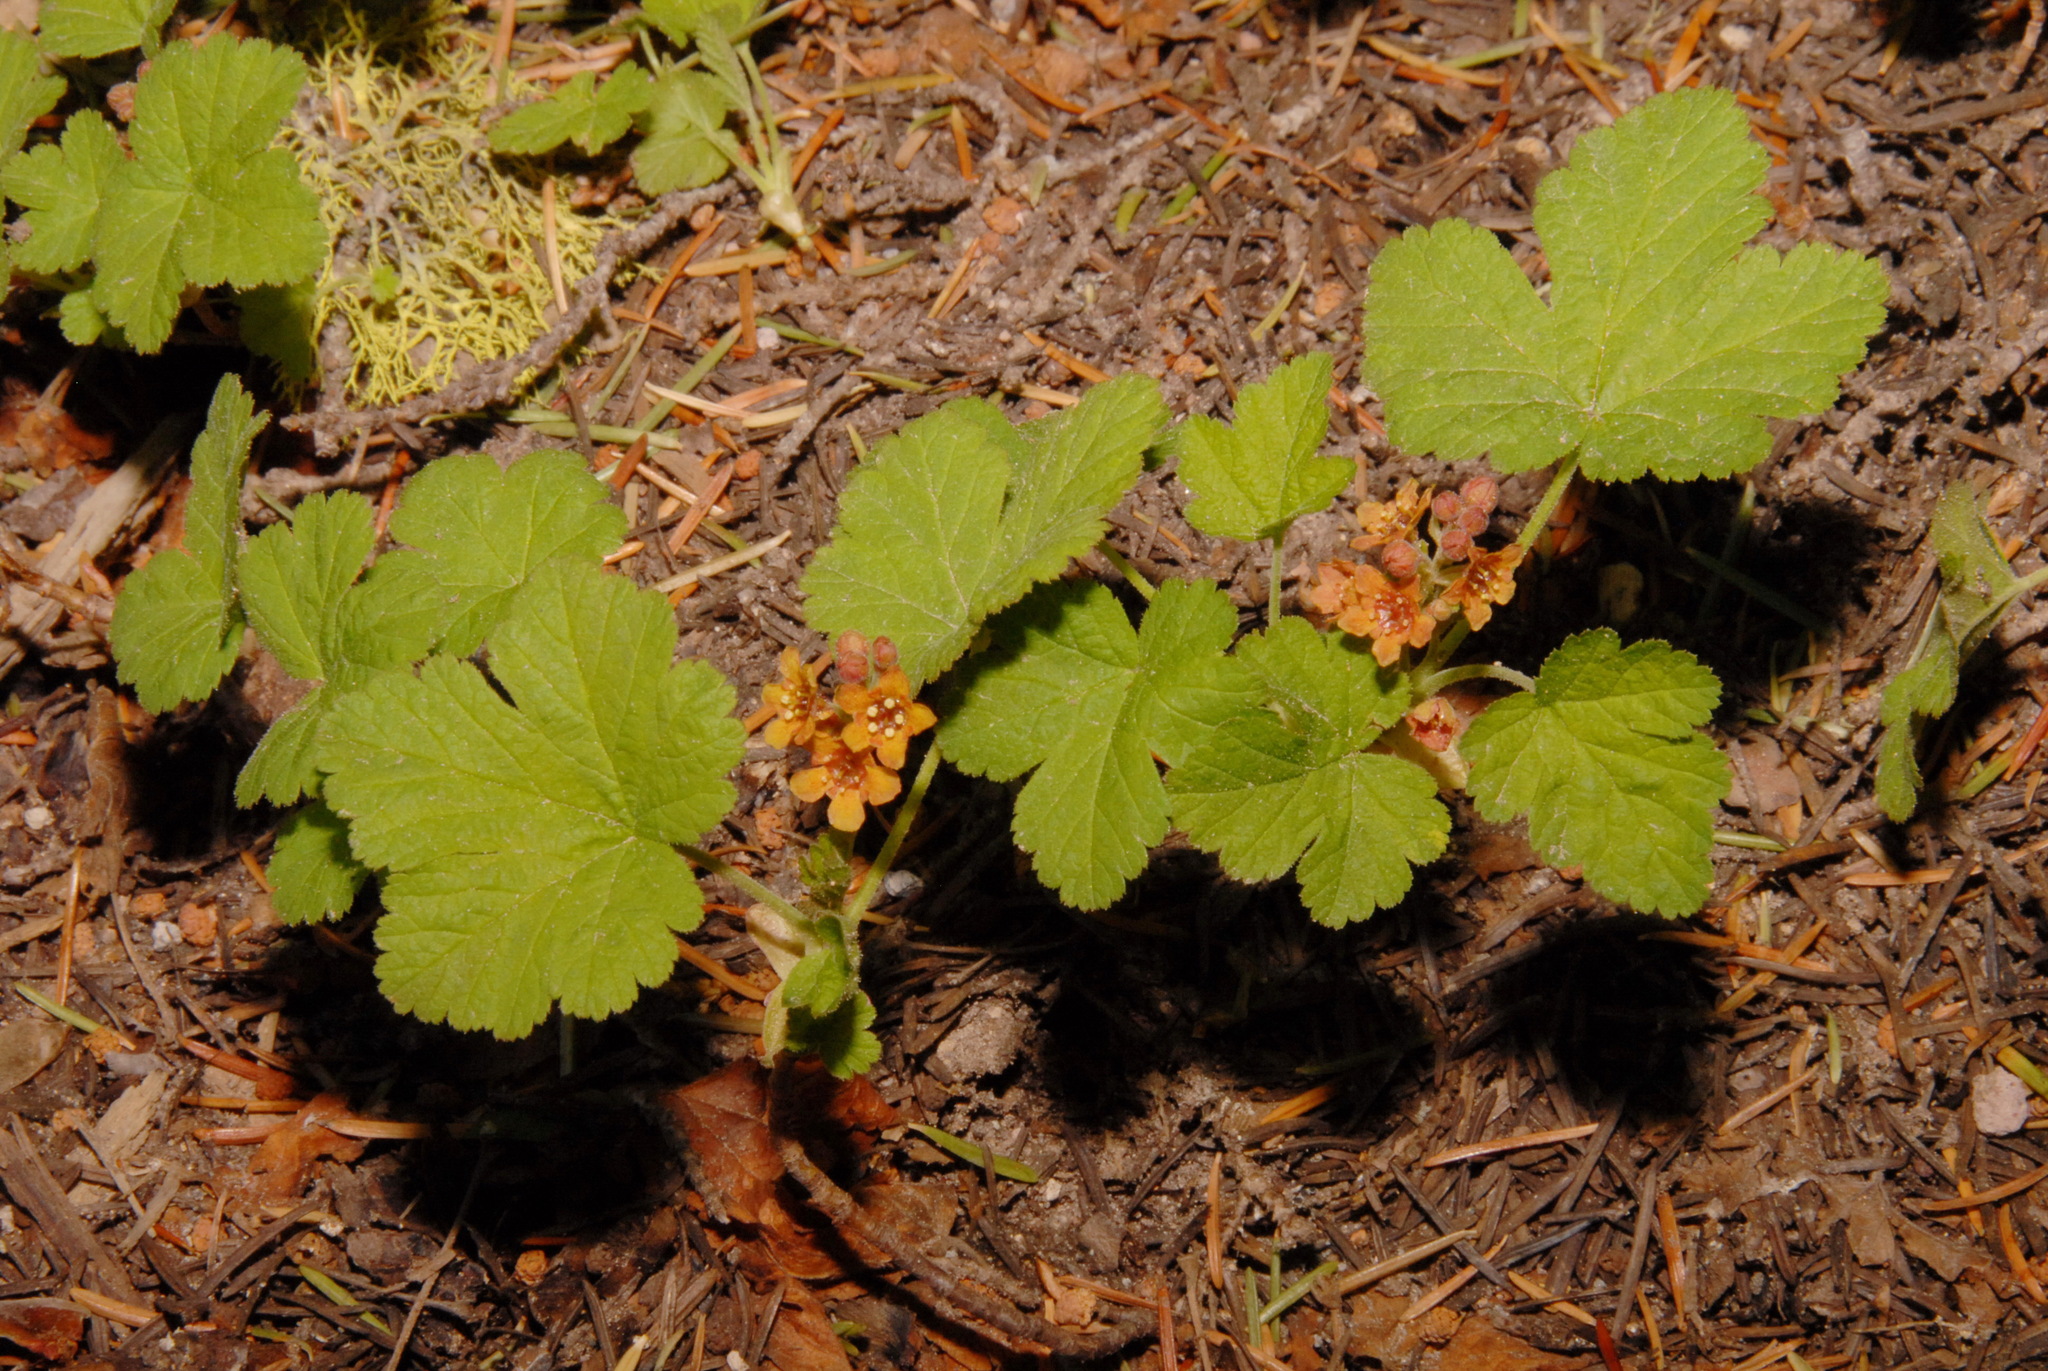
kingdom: Plantae
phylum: Tracheophyta
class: Magnoliopsida
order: Saxifragales
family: Grossulariaceae
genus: Ribes
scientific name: Ribes erythrocarpum
